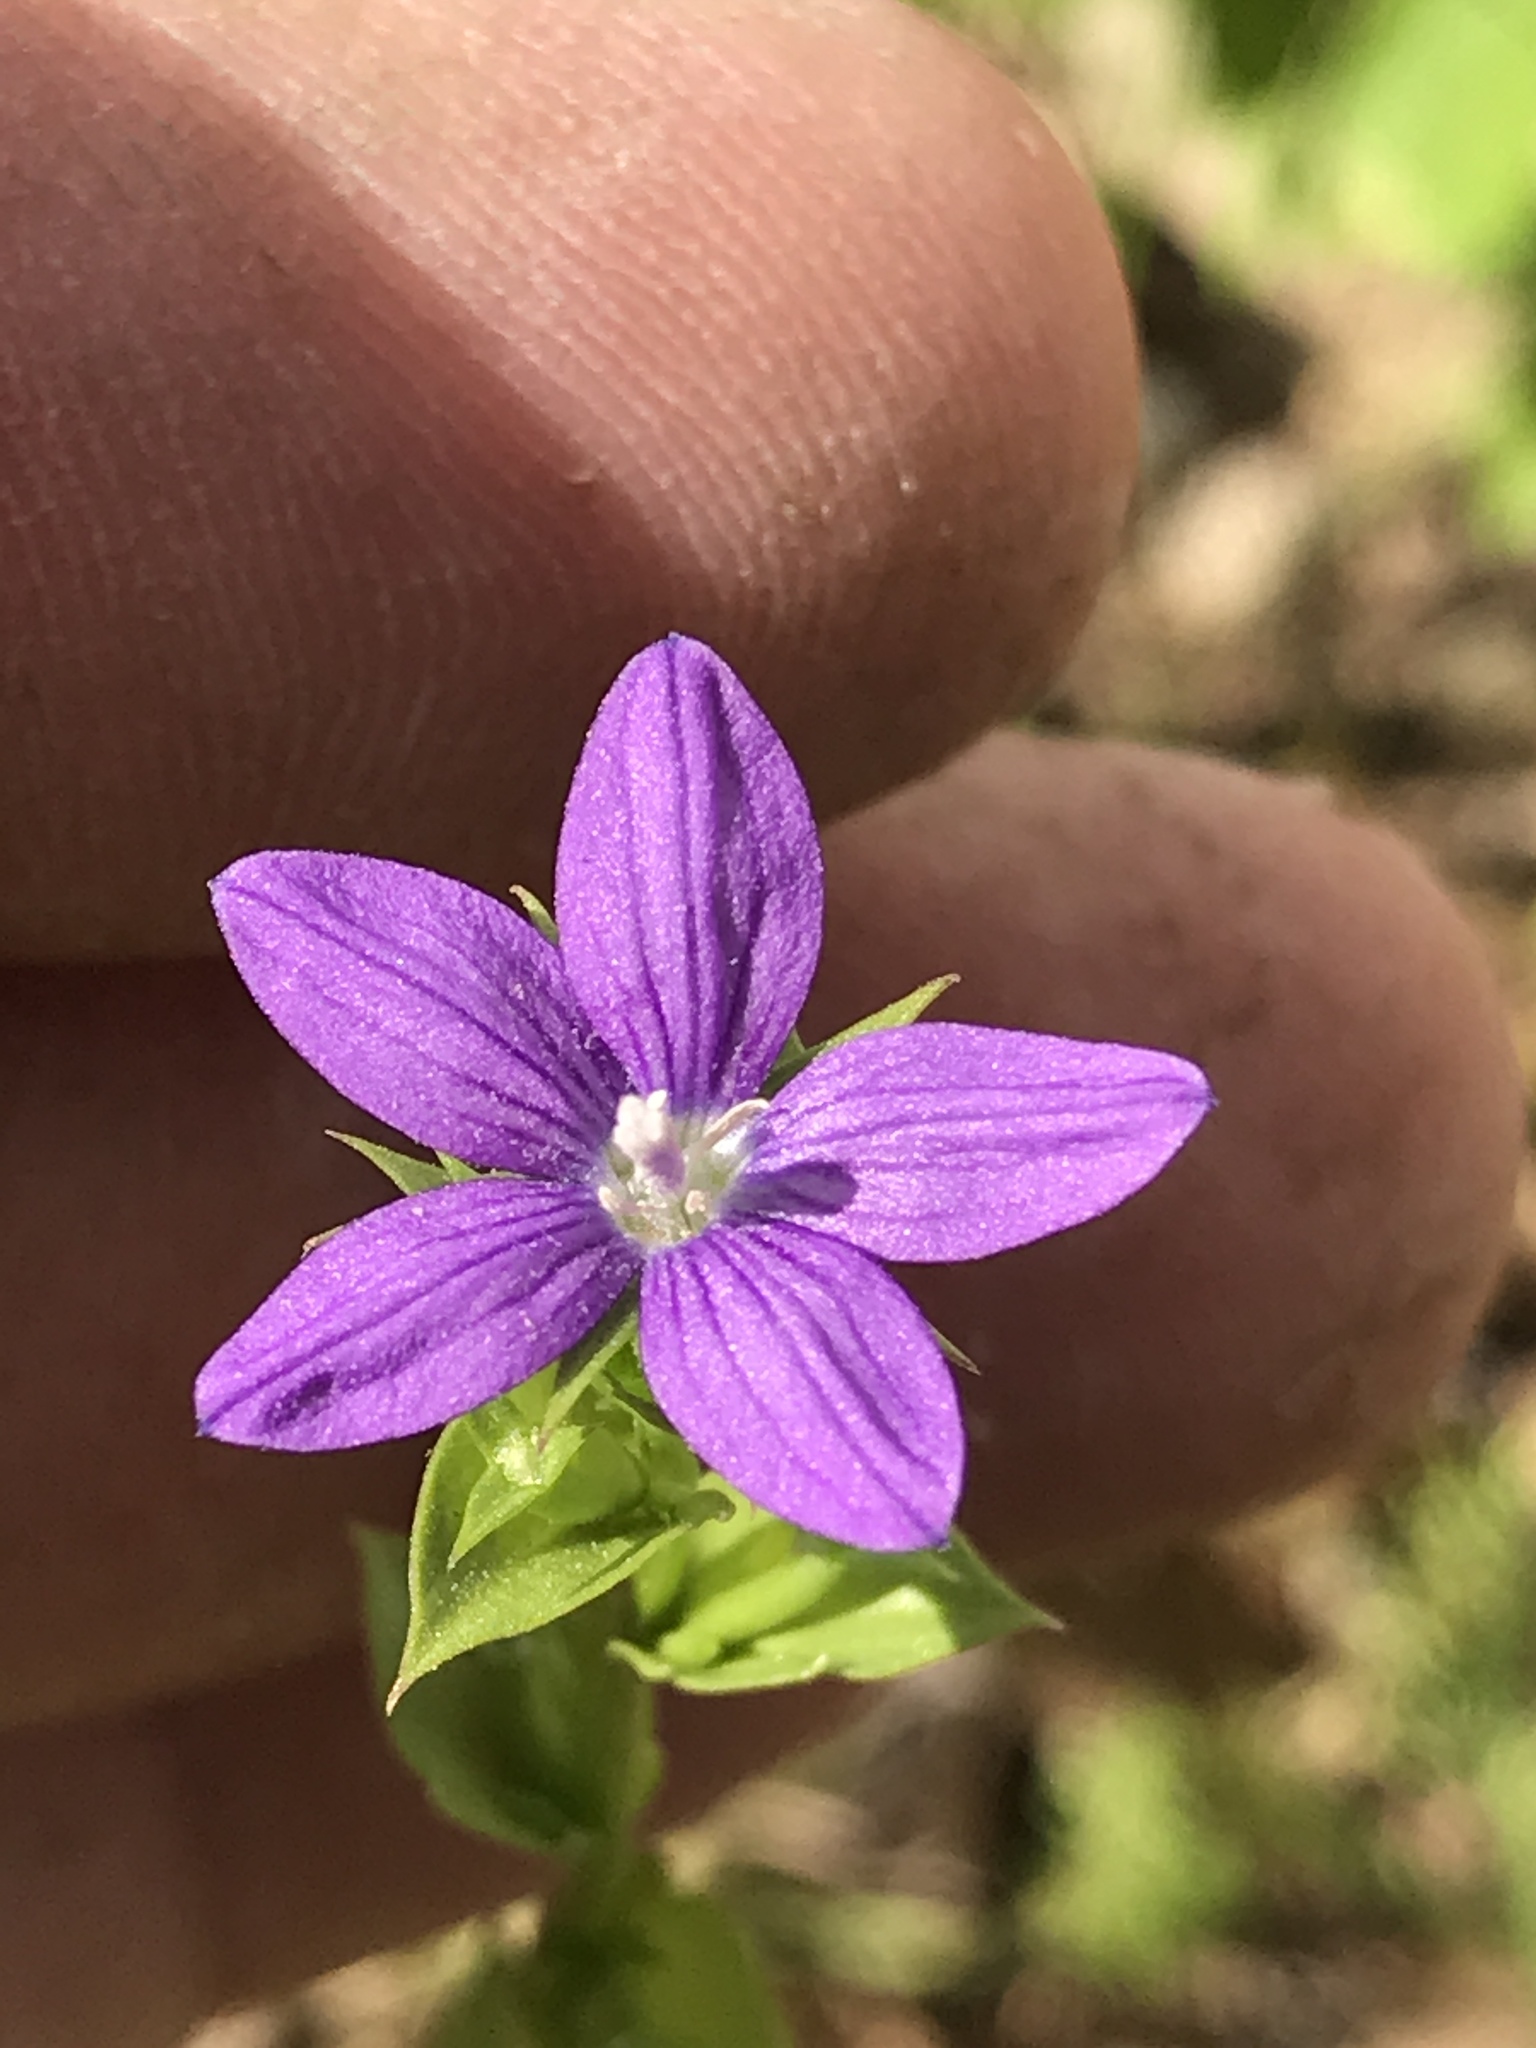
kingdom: Plantae
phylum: Tracheophyta
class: Magnoliopsida
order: Asterales
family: Campanulaceae
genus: Triodanis
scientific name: Triodanis perfoliata
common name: Clasping venus' looking-glass
